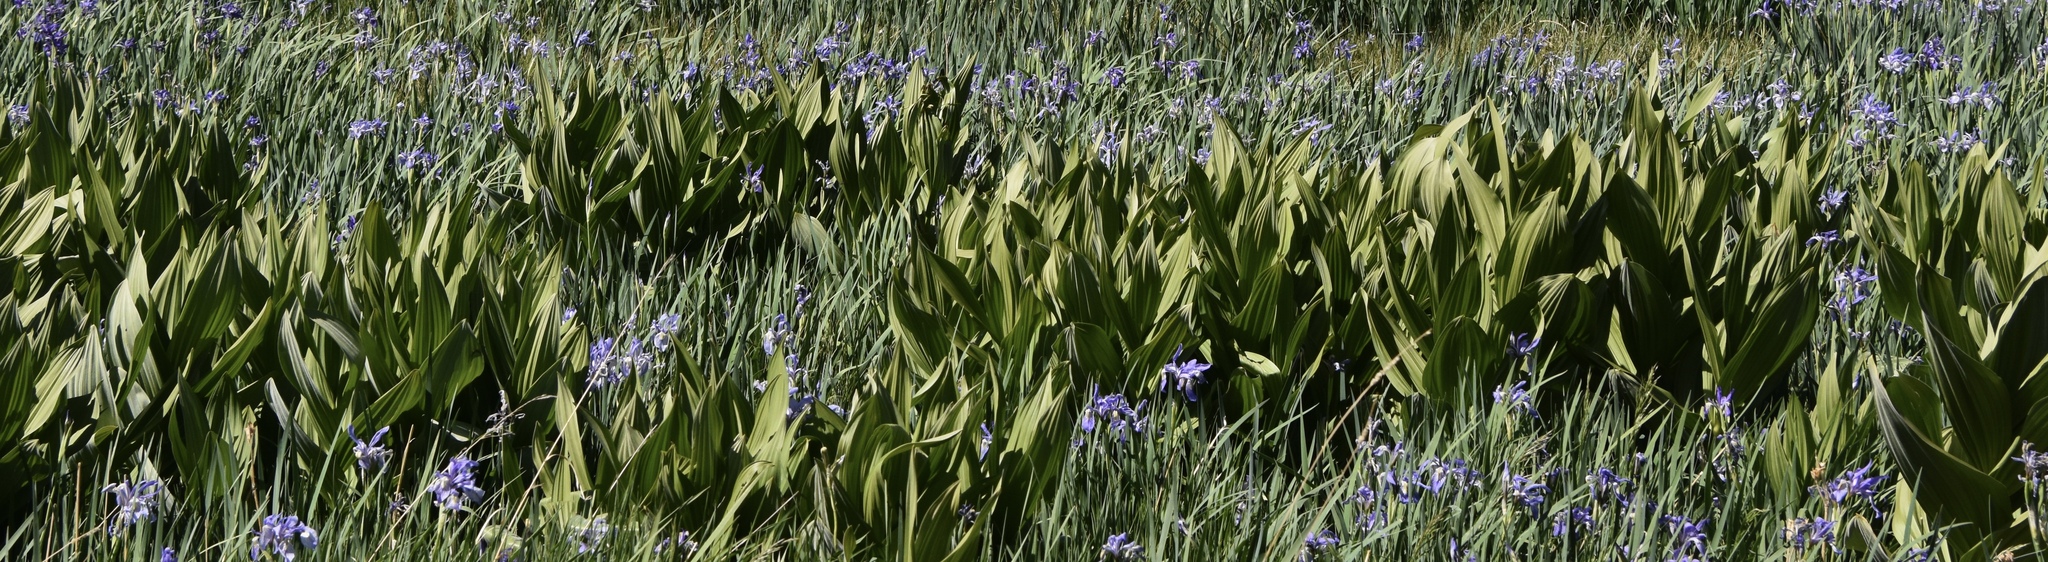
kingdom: Plantae
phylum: Tracheophyta
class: Liliopsida
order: Liliales
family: Melanthiaceae
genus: Veratrum
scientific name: Veratrum californicum
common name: California veratrum
